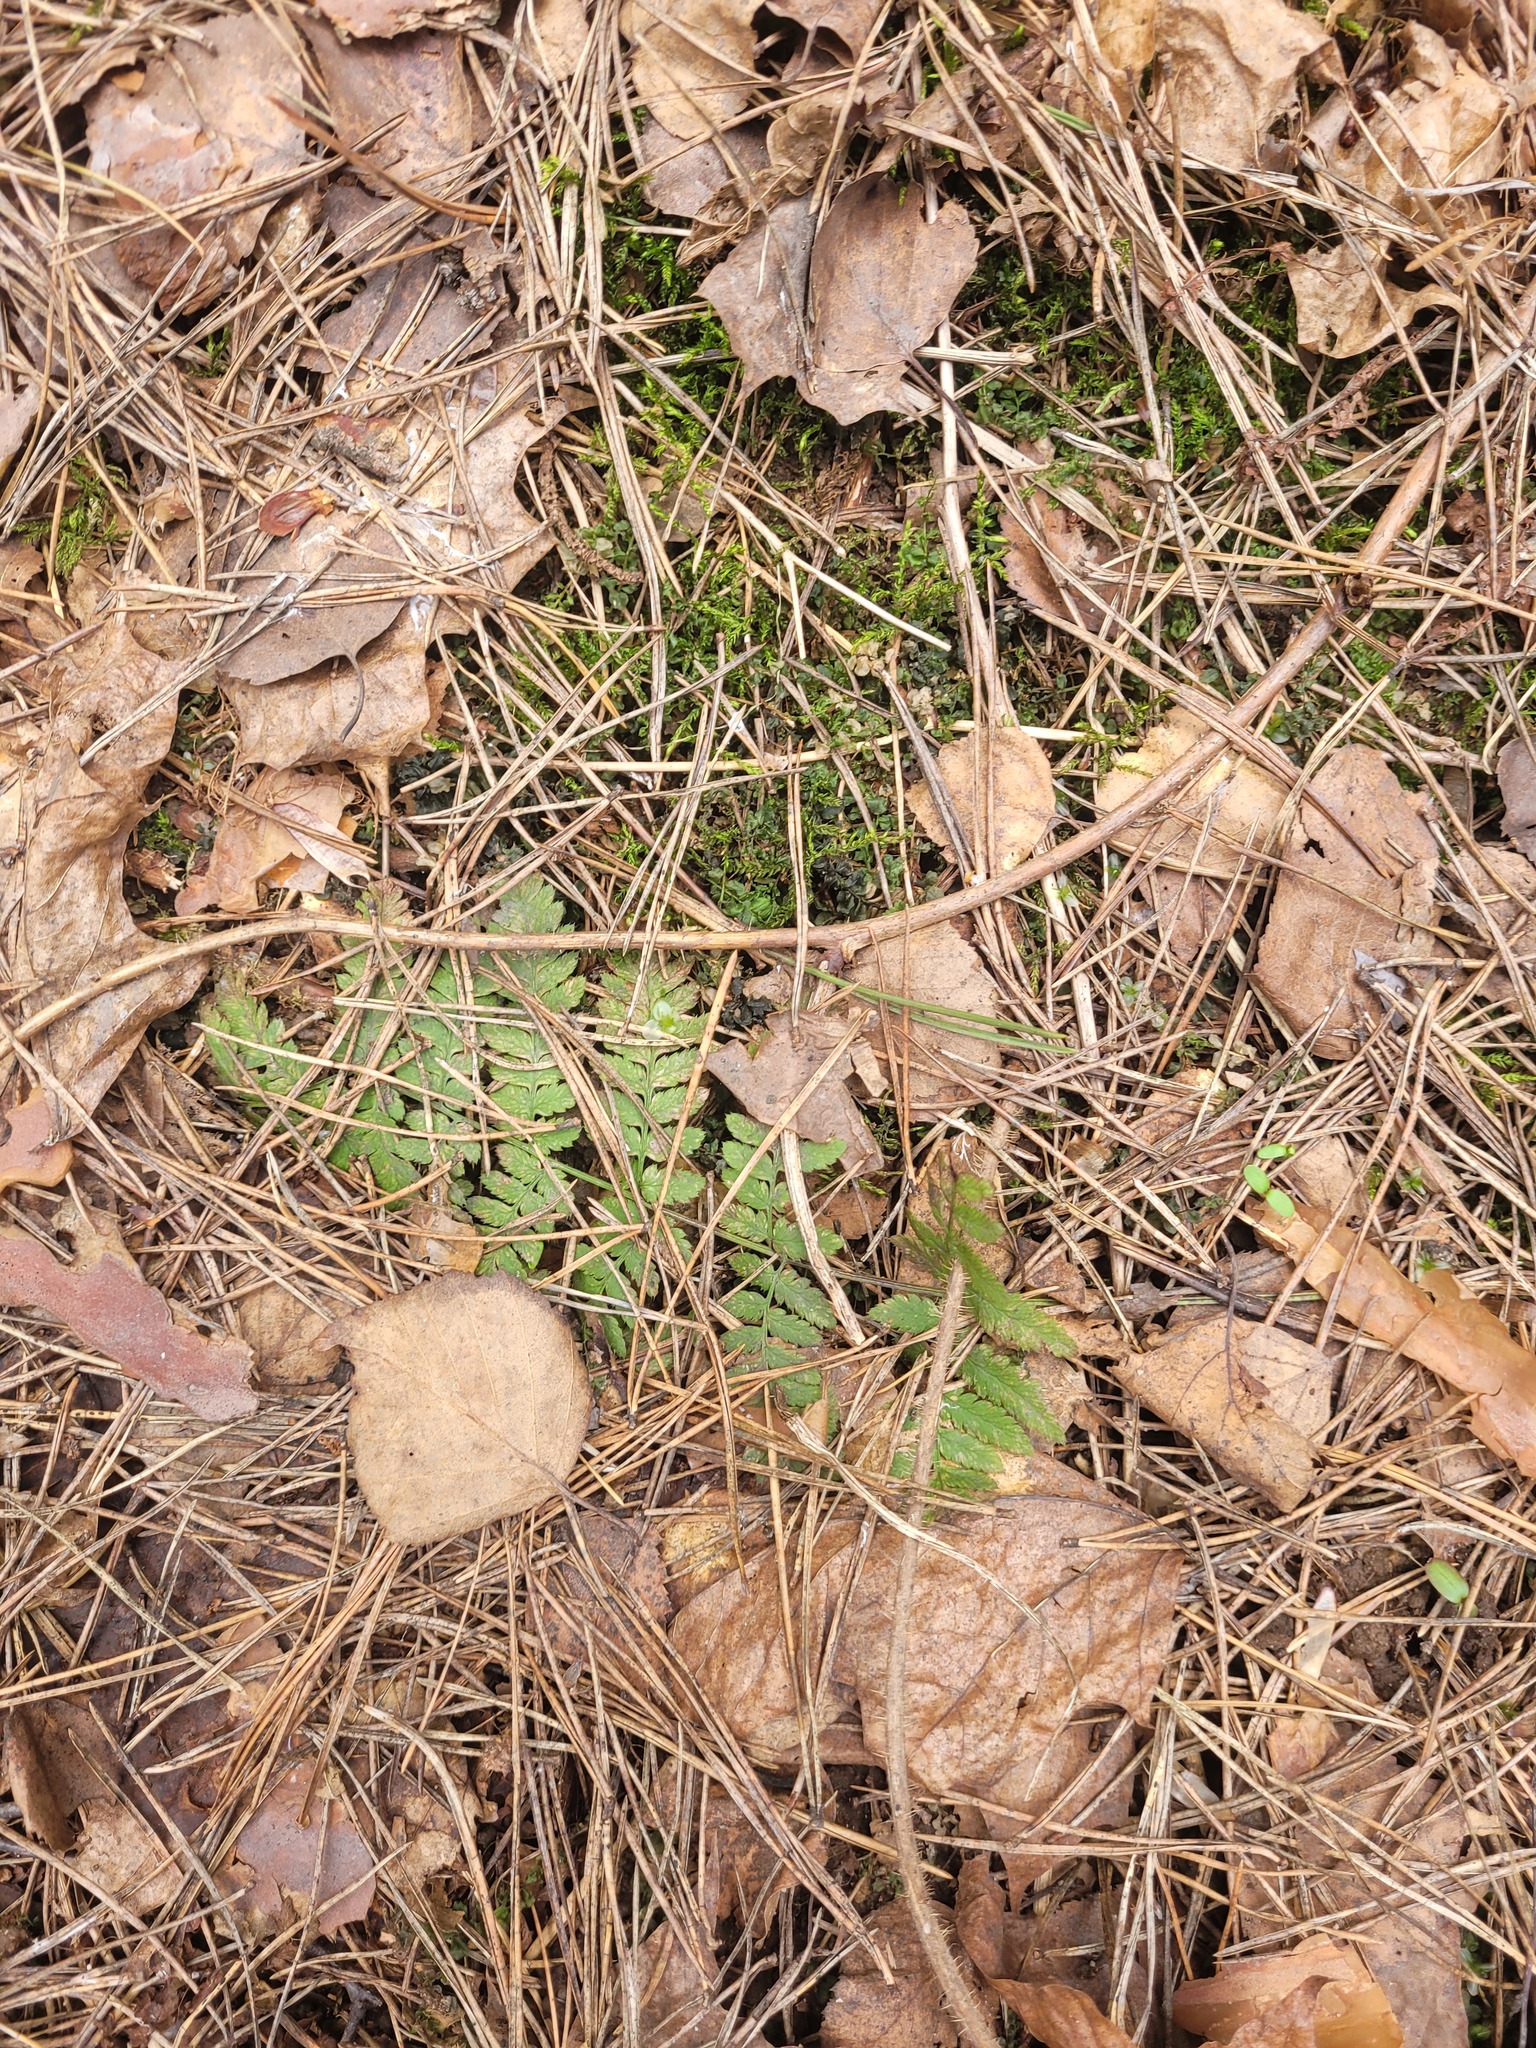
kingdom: Plantae
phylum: Tracheophyta
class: Polypodiopsida
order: Polypodiales
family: Dryopteridaceae
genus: Dryopteris
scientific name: Dryopteris carthusiana
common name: Narrow buckler-fern
